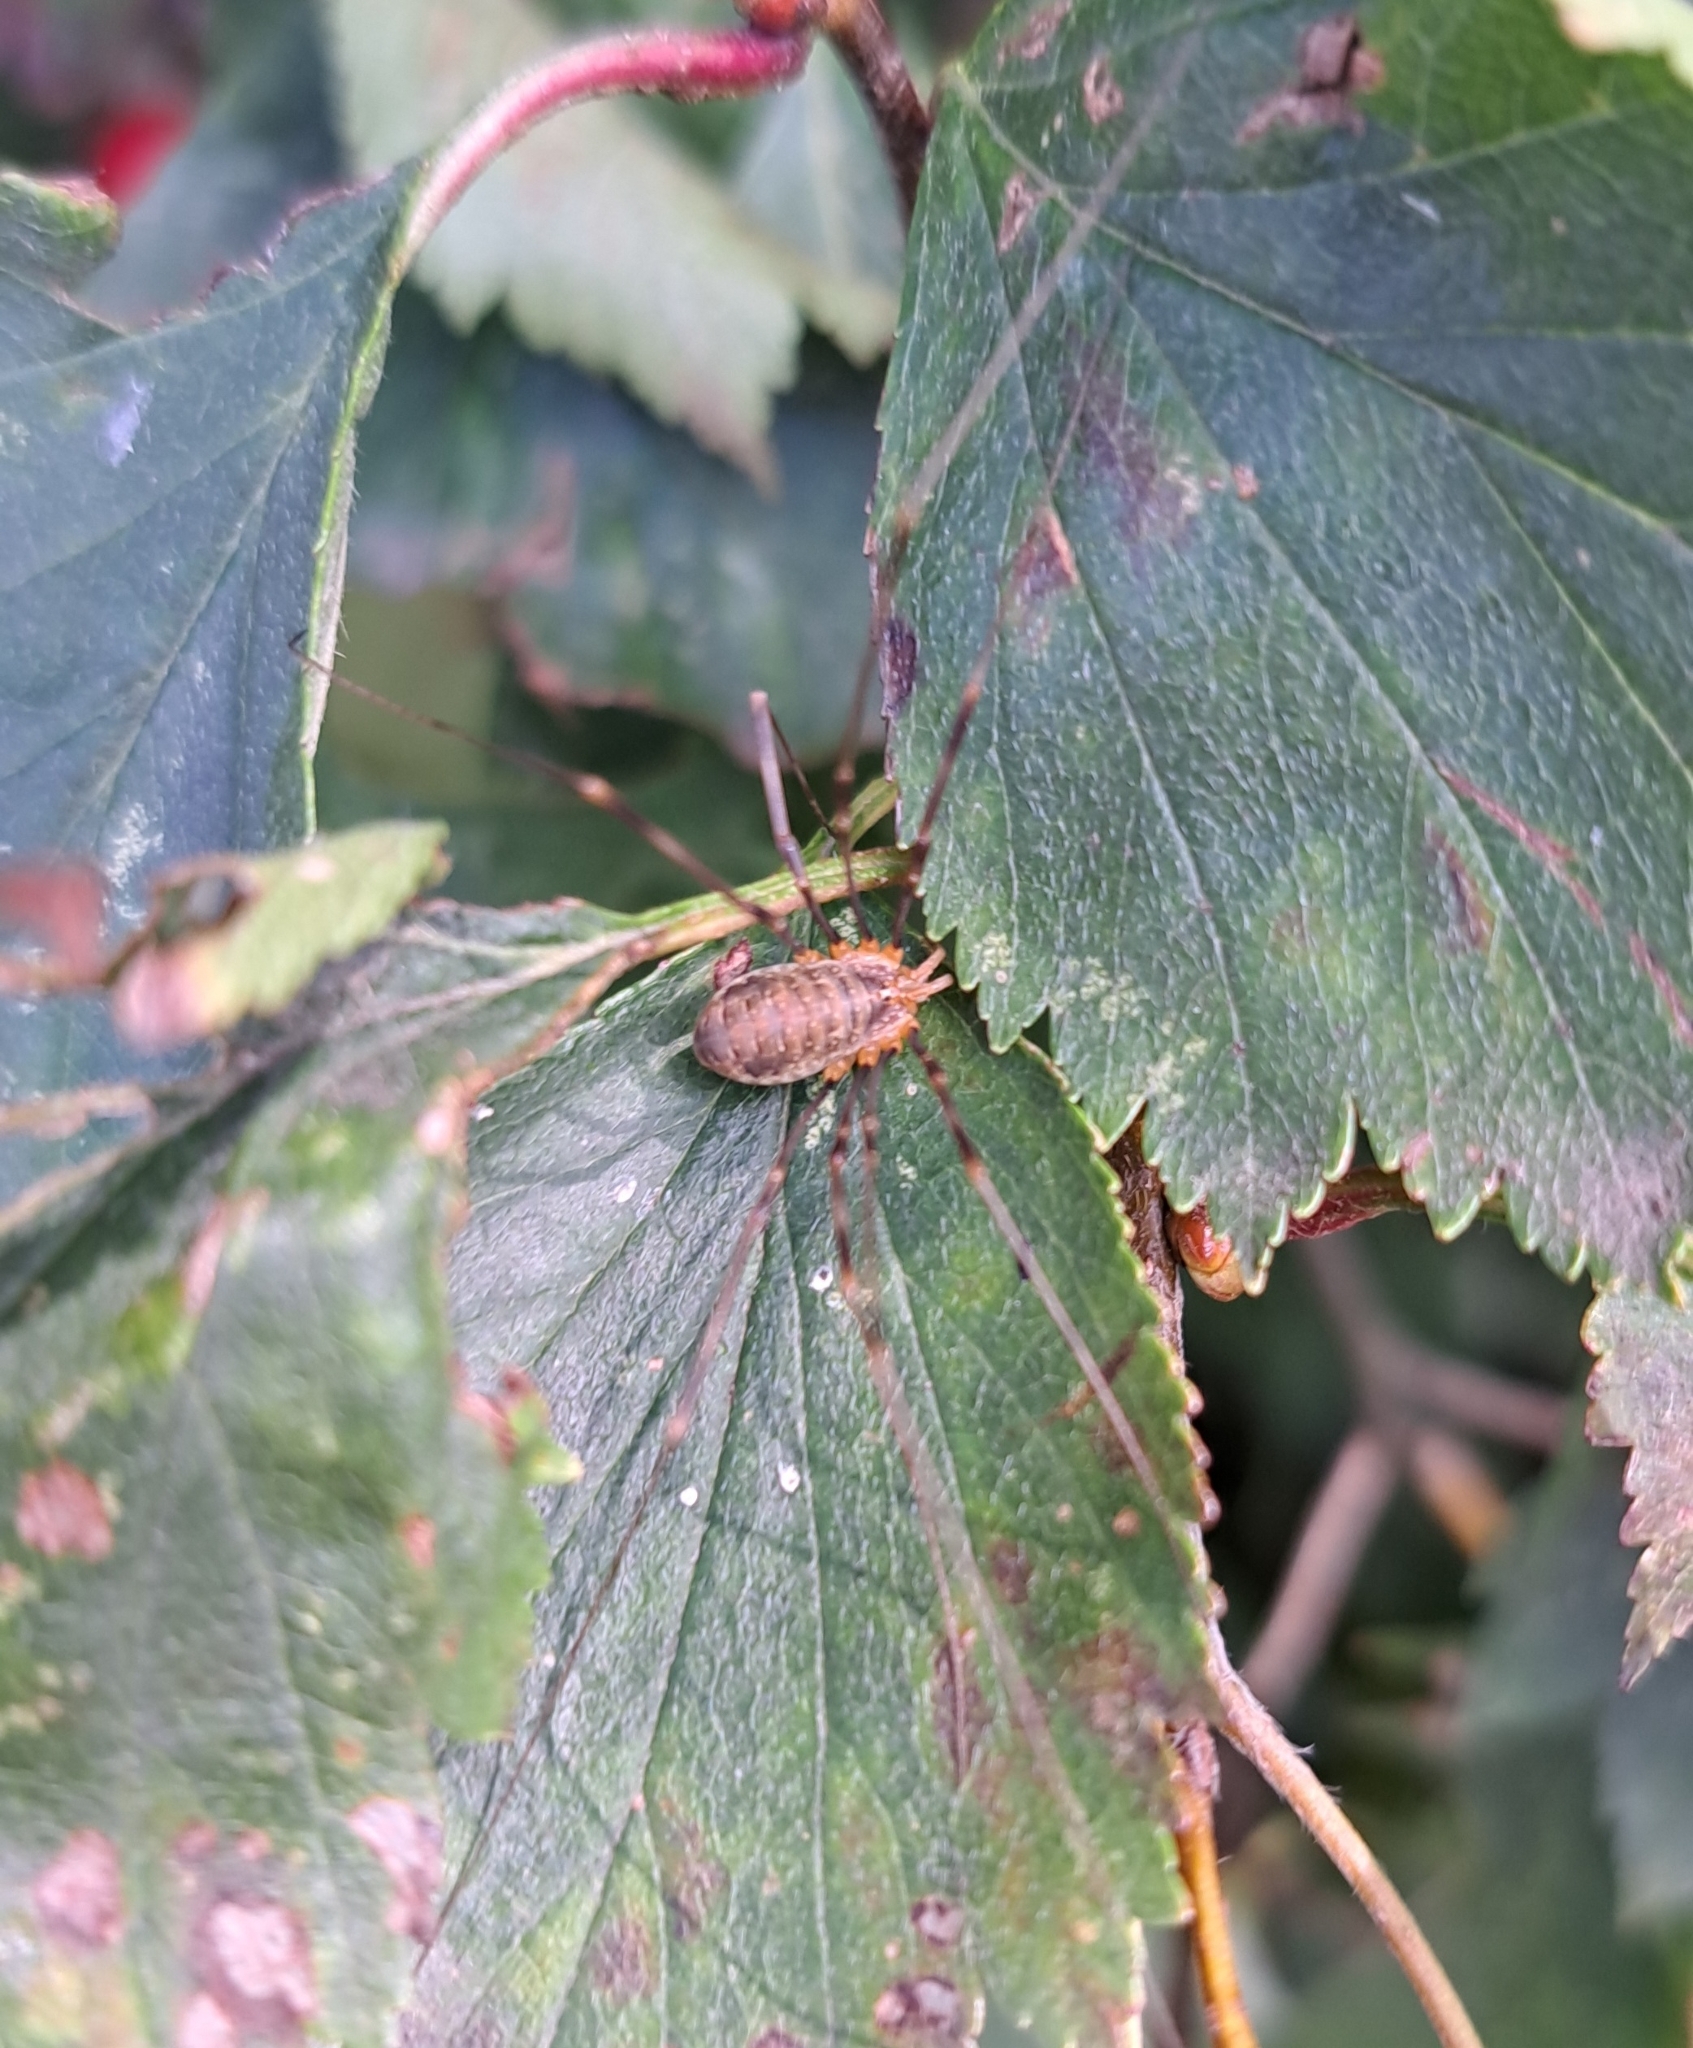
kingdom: Animalia
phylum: Arthropoda
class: Arachnida
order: Opiliones
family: Phalangiidae
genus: Opilio
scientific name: Opilio canestrinii
